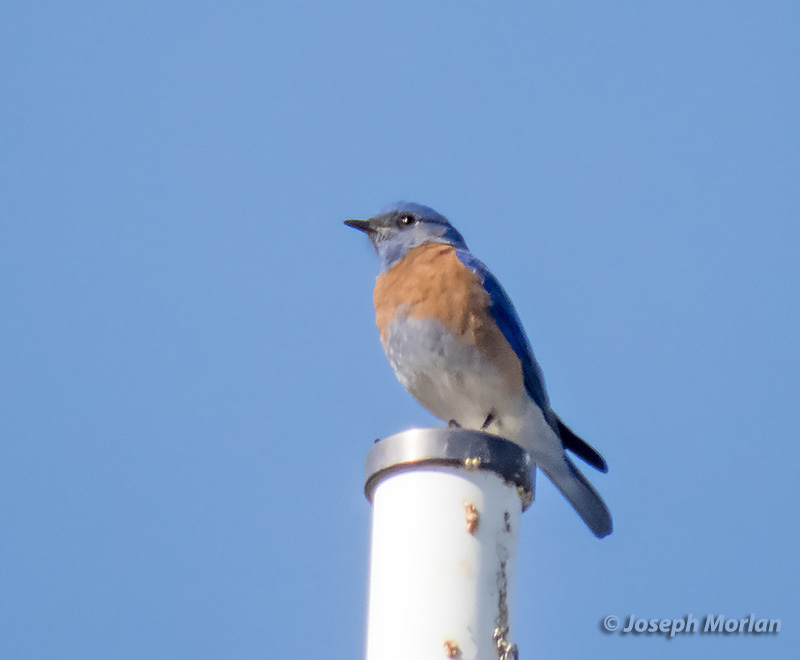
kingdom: Animalia
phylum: Chordata
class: Aves
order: Passeriformes
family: Turdidae
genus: Sialia
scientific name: Sialia mexicana
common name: Western bluebird
